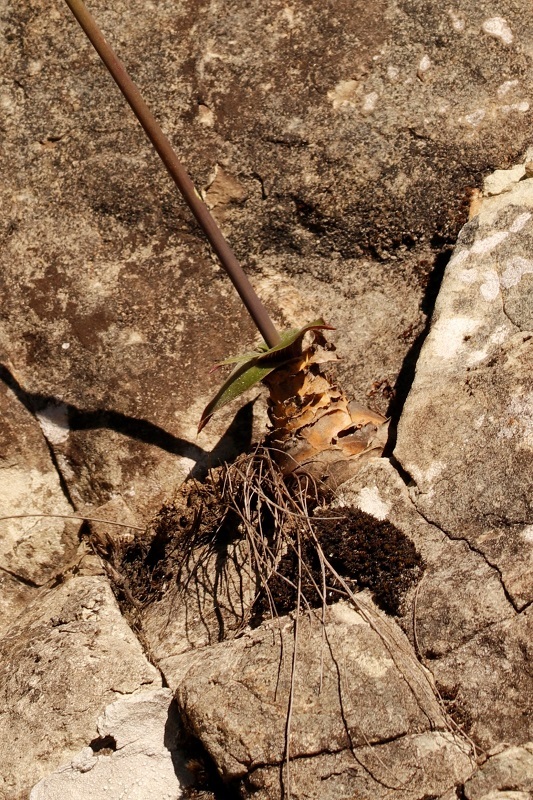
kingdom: Plantae
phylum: Tracheophyta
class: Liliopsida
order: Asparagales
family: Asparagaceae
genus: Merwilla
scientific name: Merwilla plumbea
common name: Blue-squill
